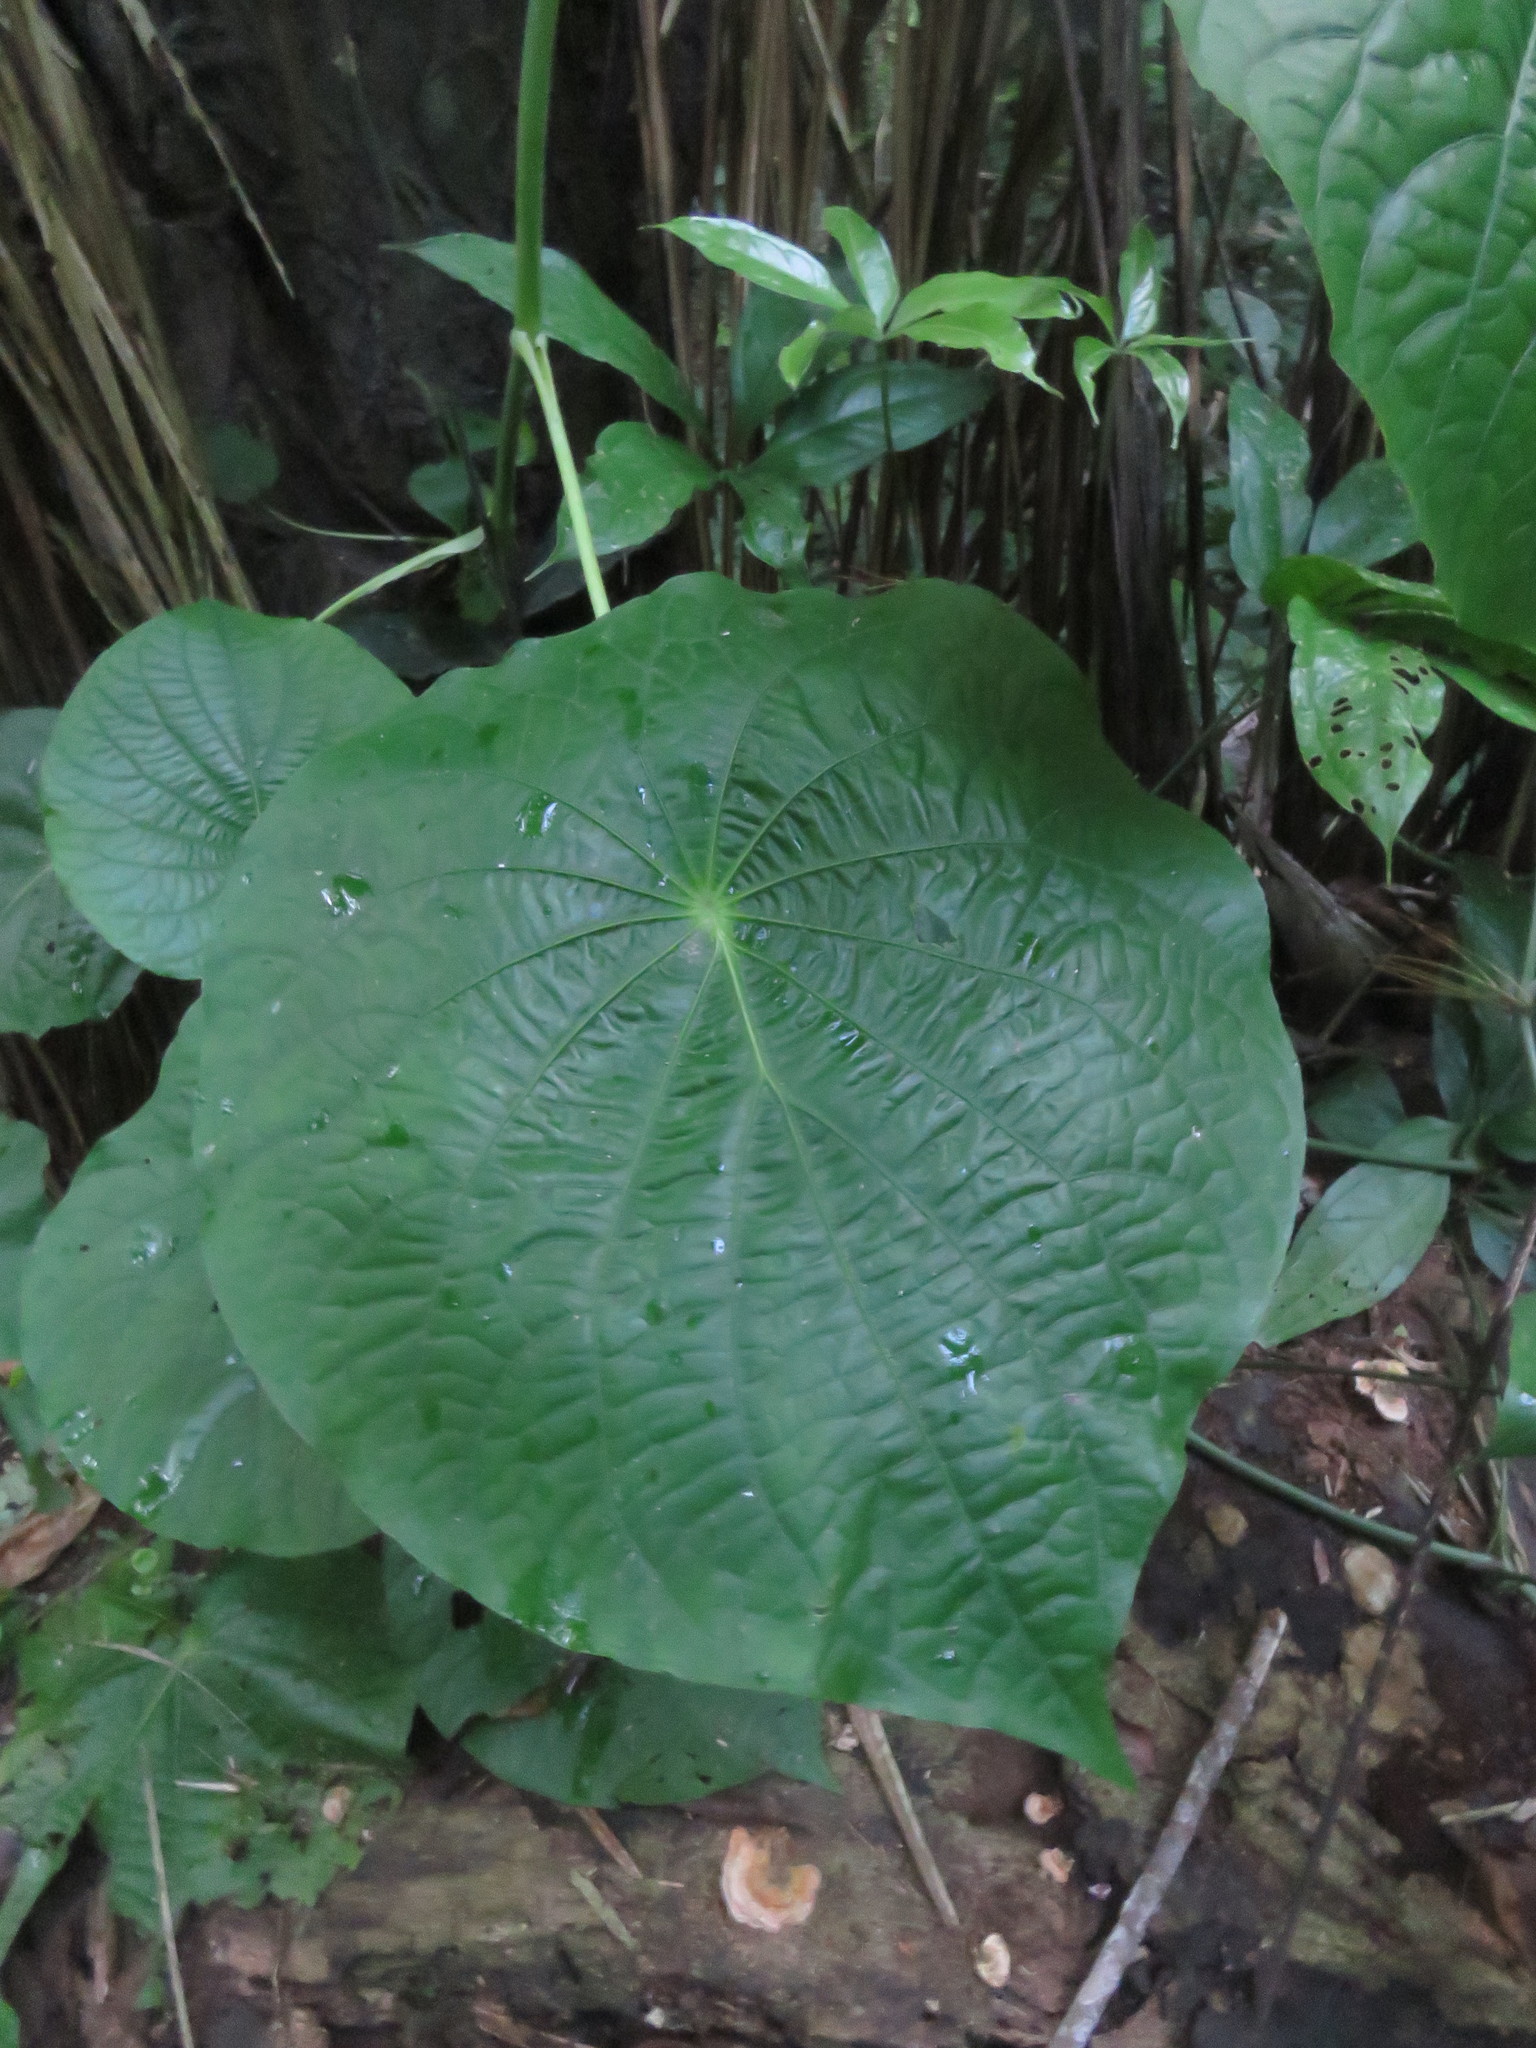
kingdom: Plantae
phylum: Tracheophyta
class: Magnoliopsida
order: Piperales
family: Piperaceae
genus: Piper
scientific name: Piper peltatum
